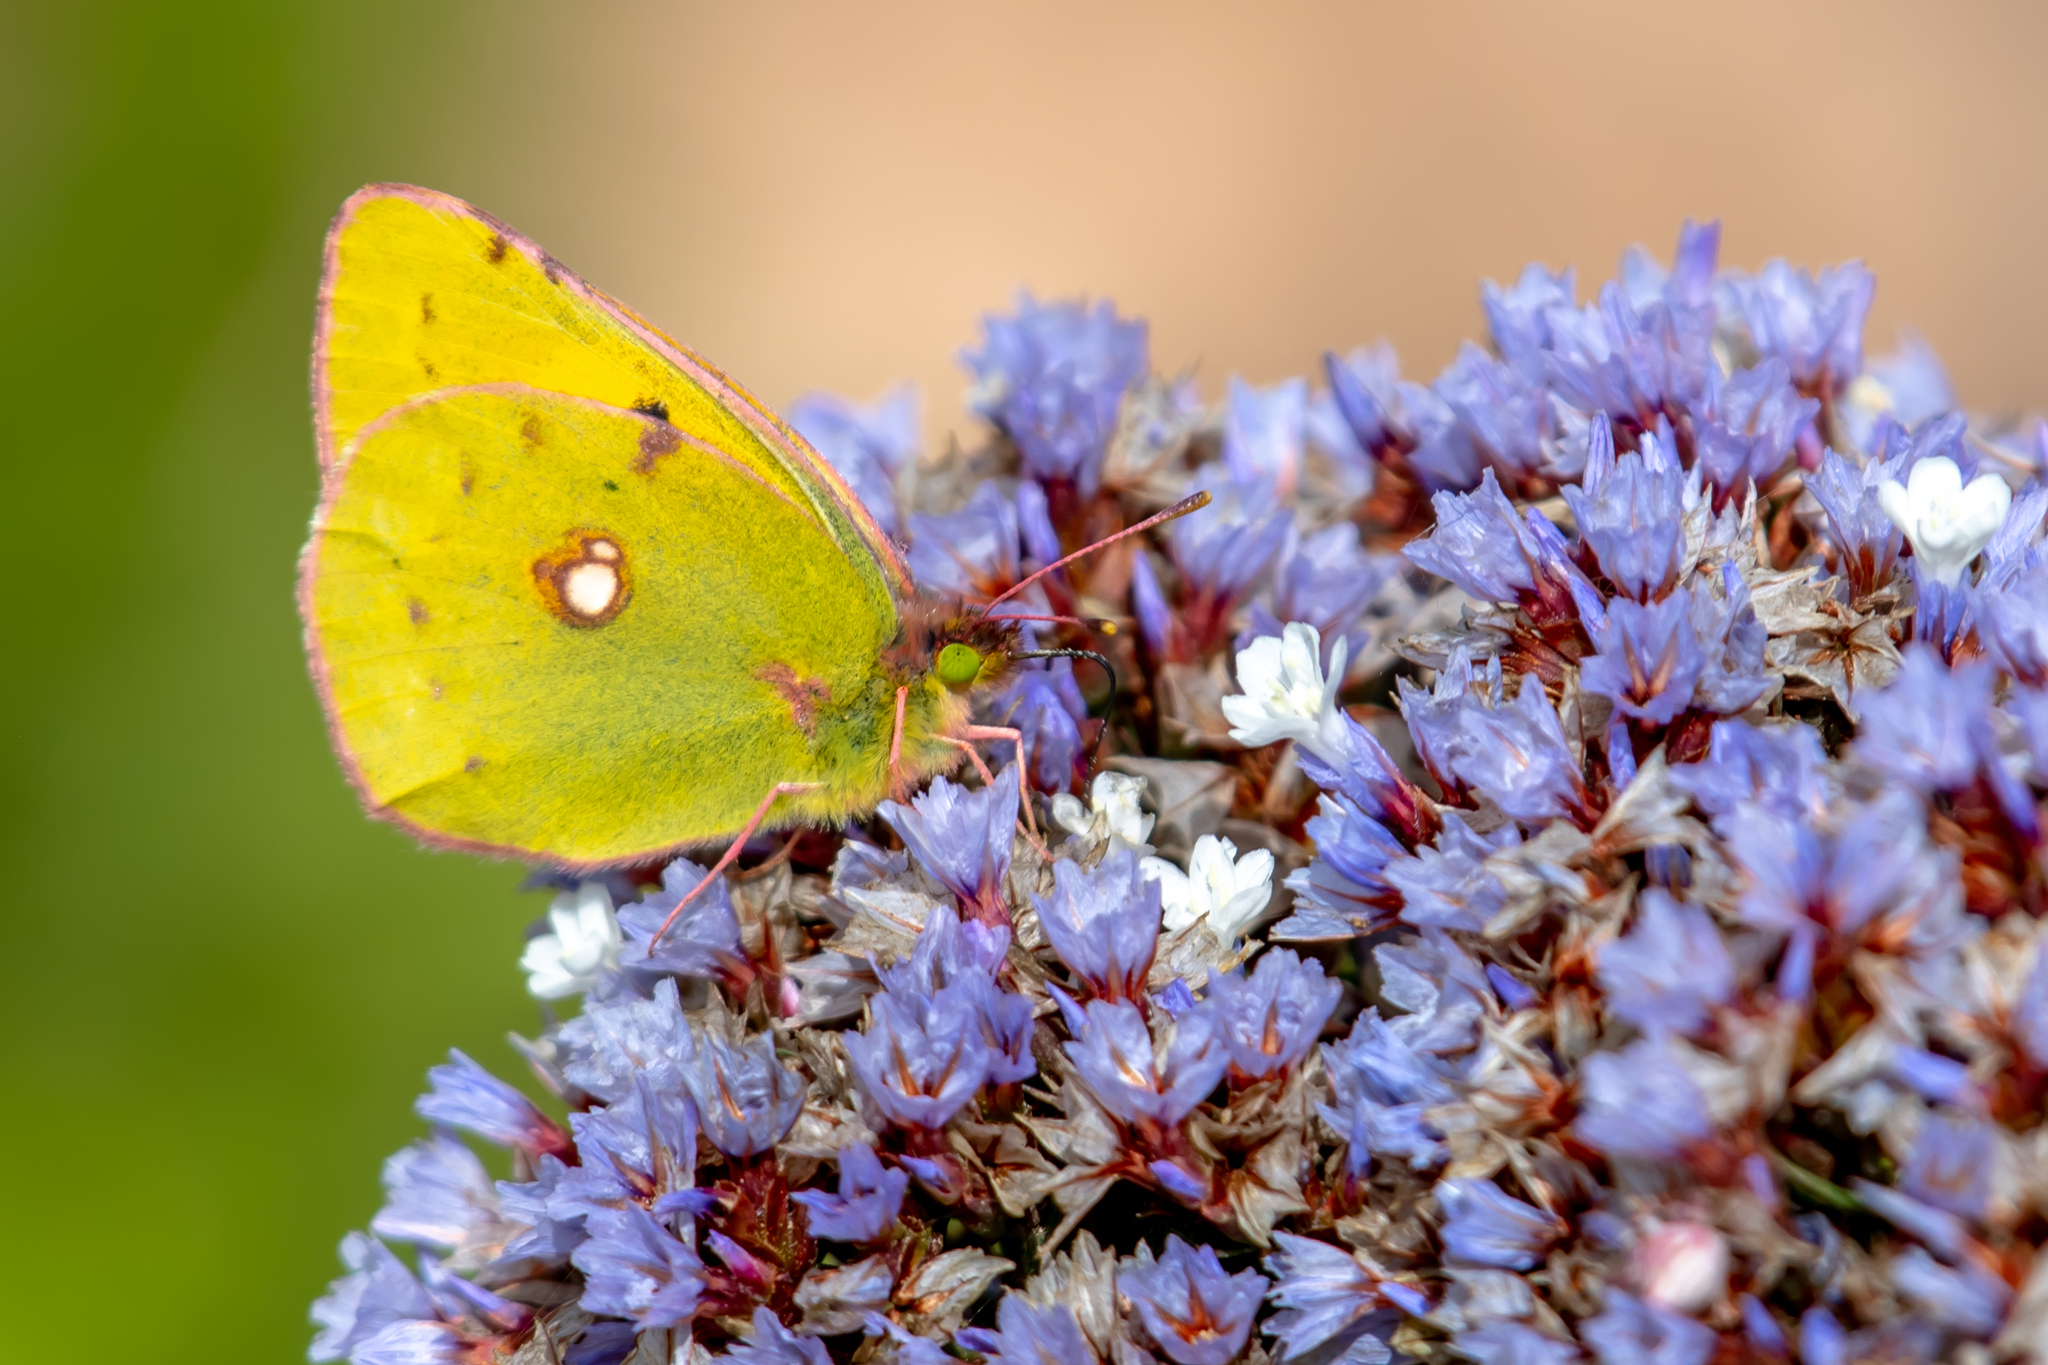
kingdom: Animalia
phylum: Arthropoda
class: Insecta
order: Lepidoptera
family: Pieridae
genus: Colias
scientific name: Colias croceus
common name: Clouded yellow
